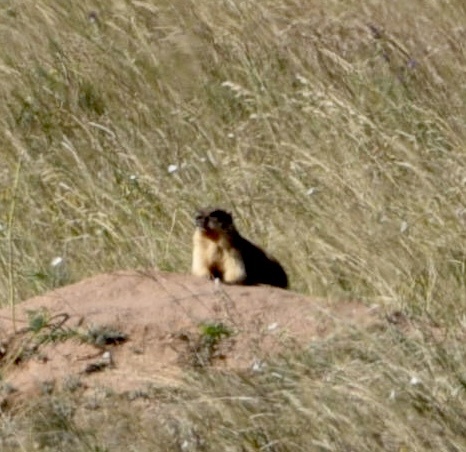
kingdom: Animalia
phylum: Chordata
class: Mammalia
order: Rodentia
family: Sciuridae
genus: Marmota
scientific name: Marmota bobak
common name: Bobak marmot
